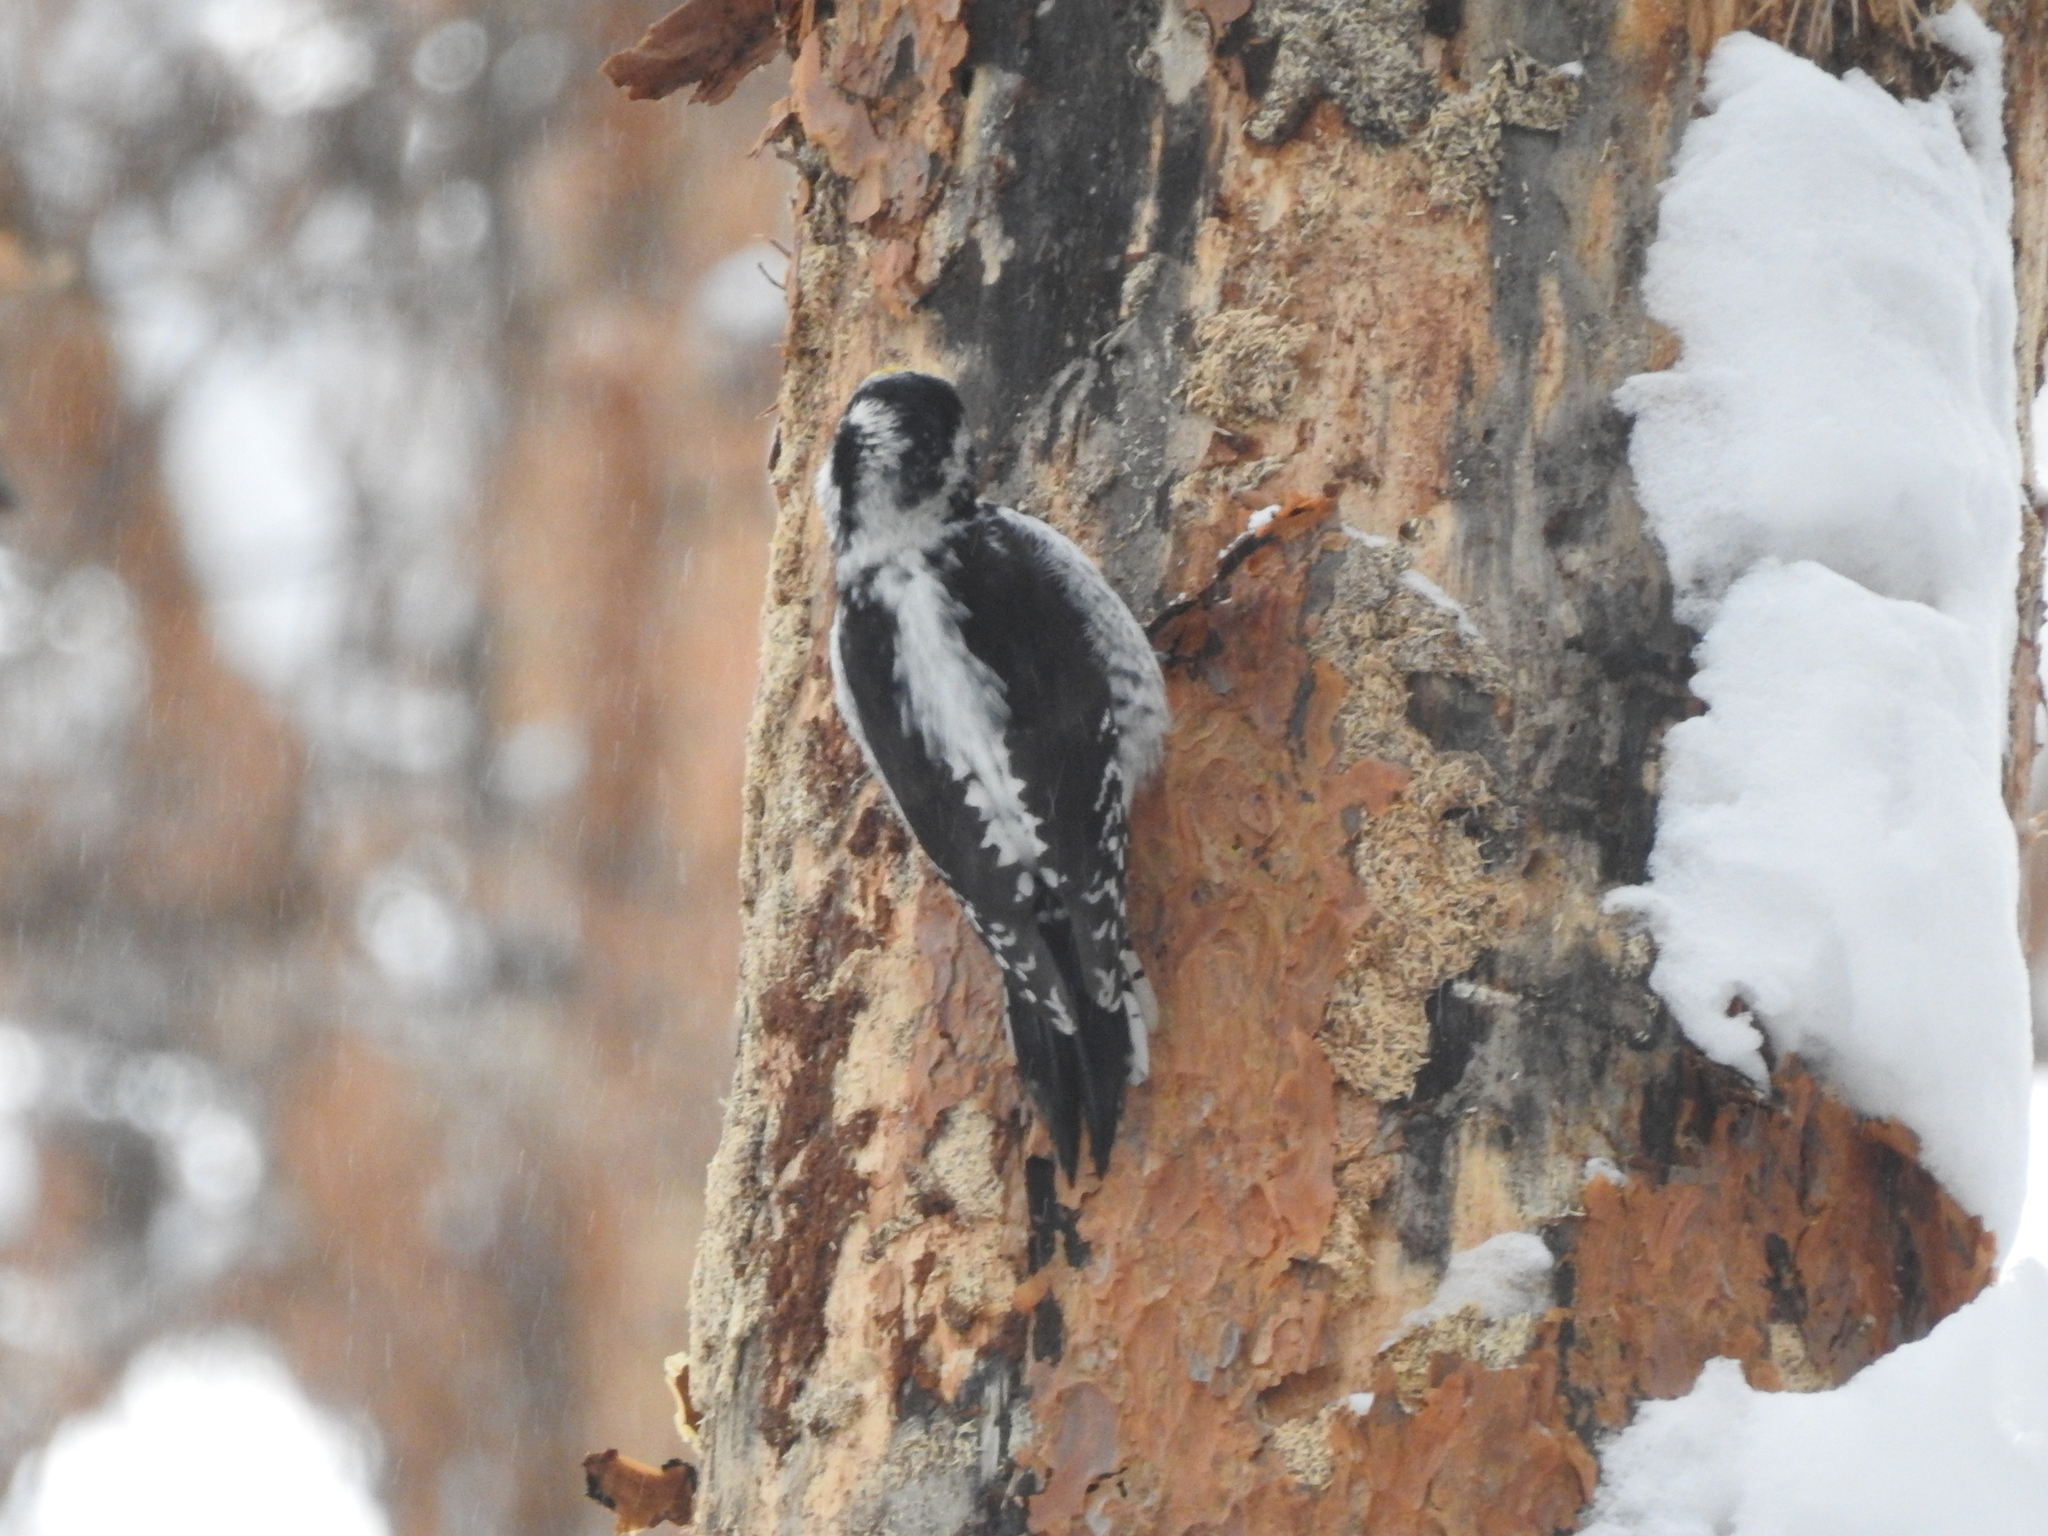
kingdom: Animalia
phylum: Chordata
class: Aves
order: Piciformes
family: Picidae
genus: Picoides
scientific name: Picoides tridactylus
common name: Eurasian three-toed woodpecker
